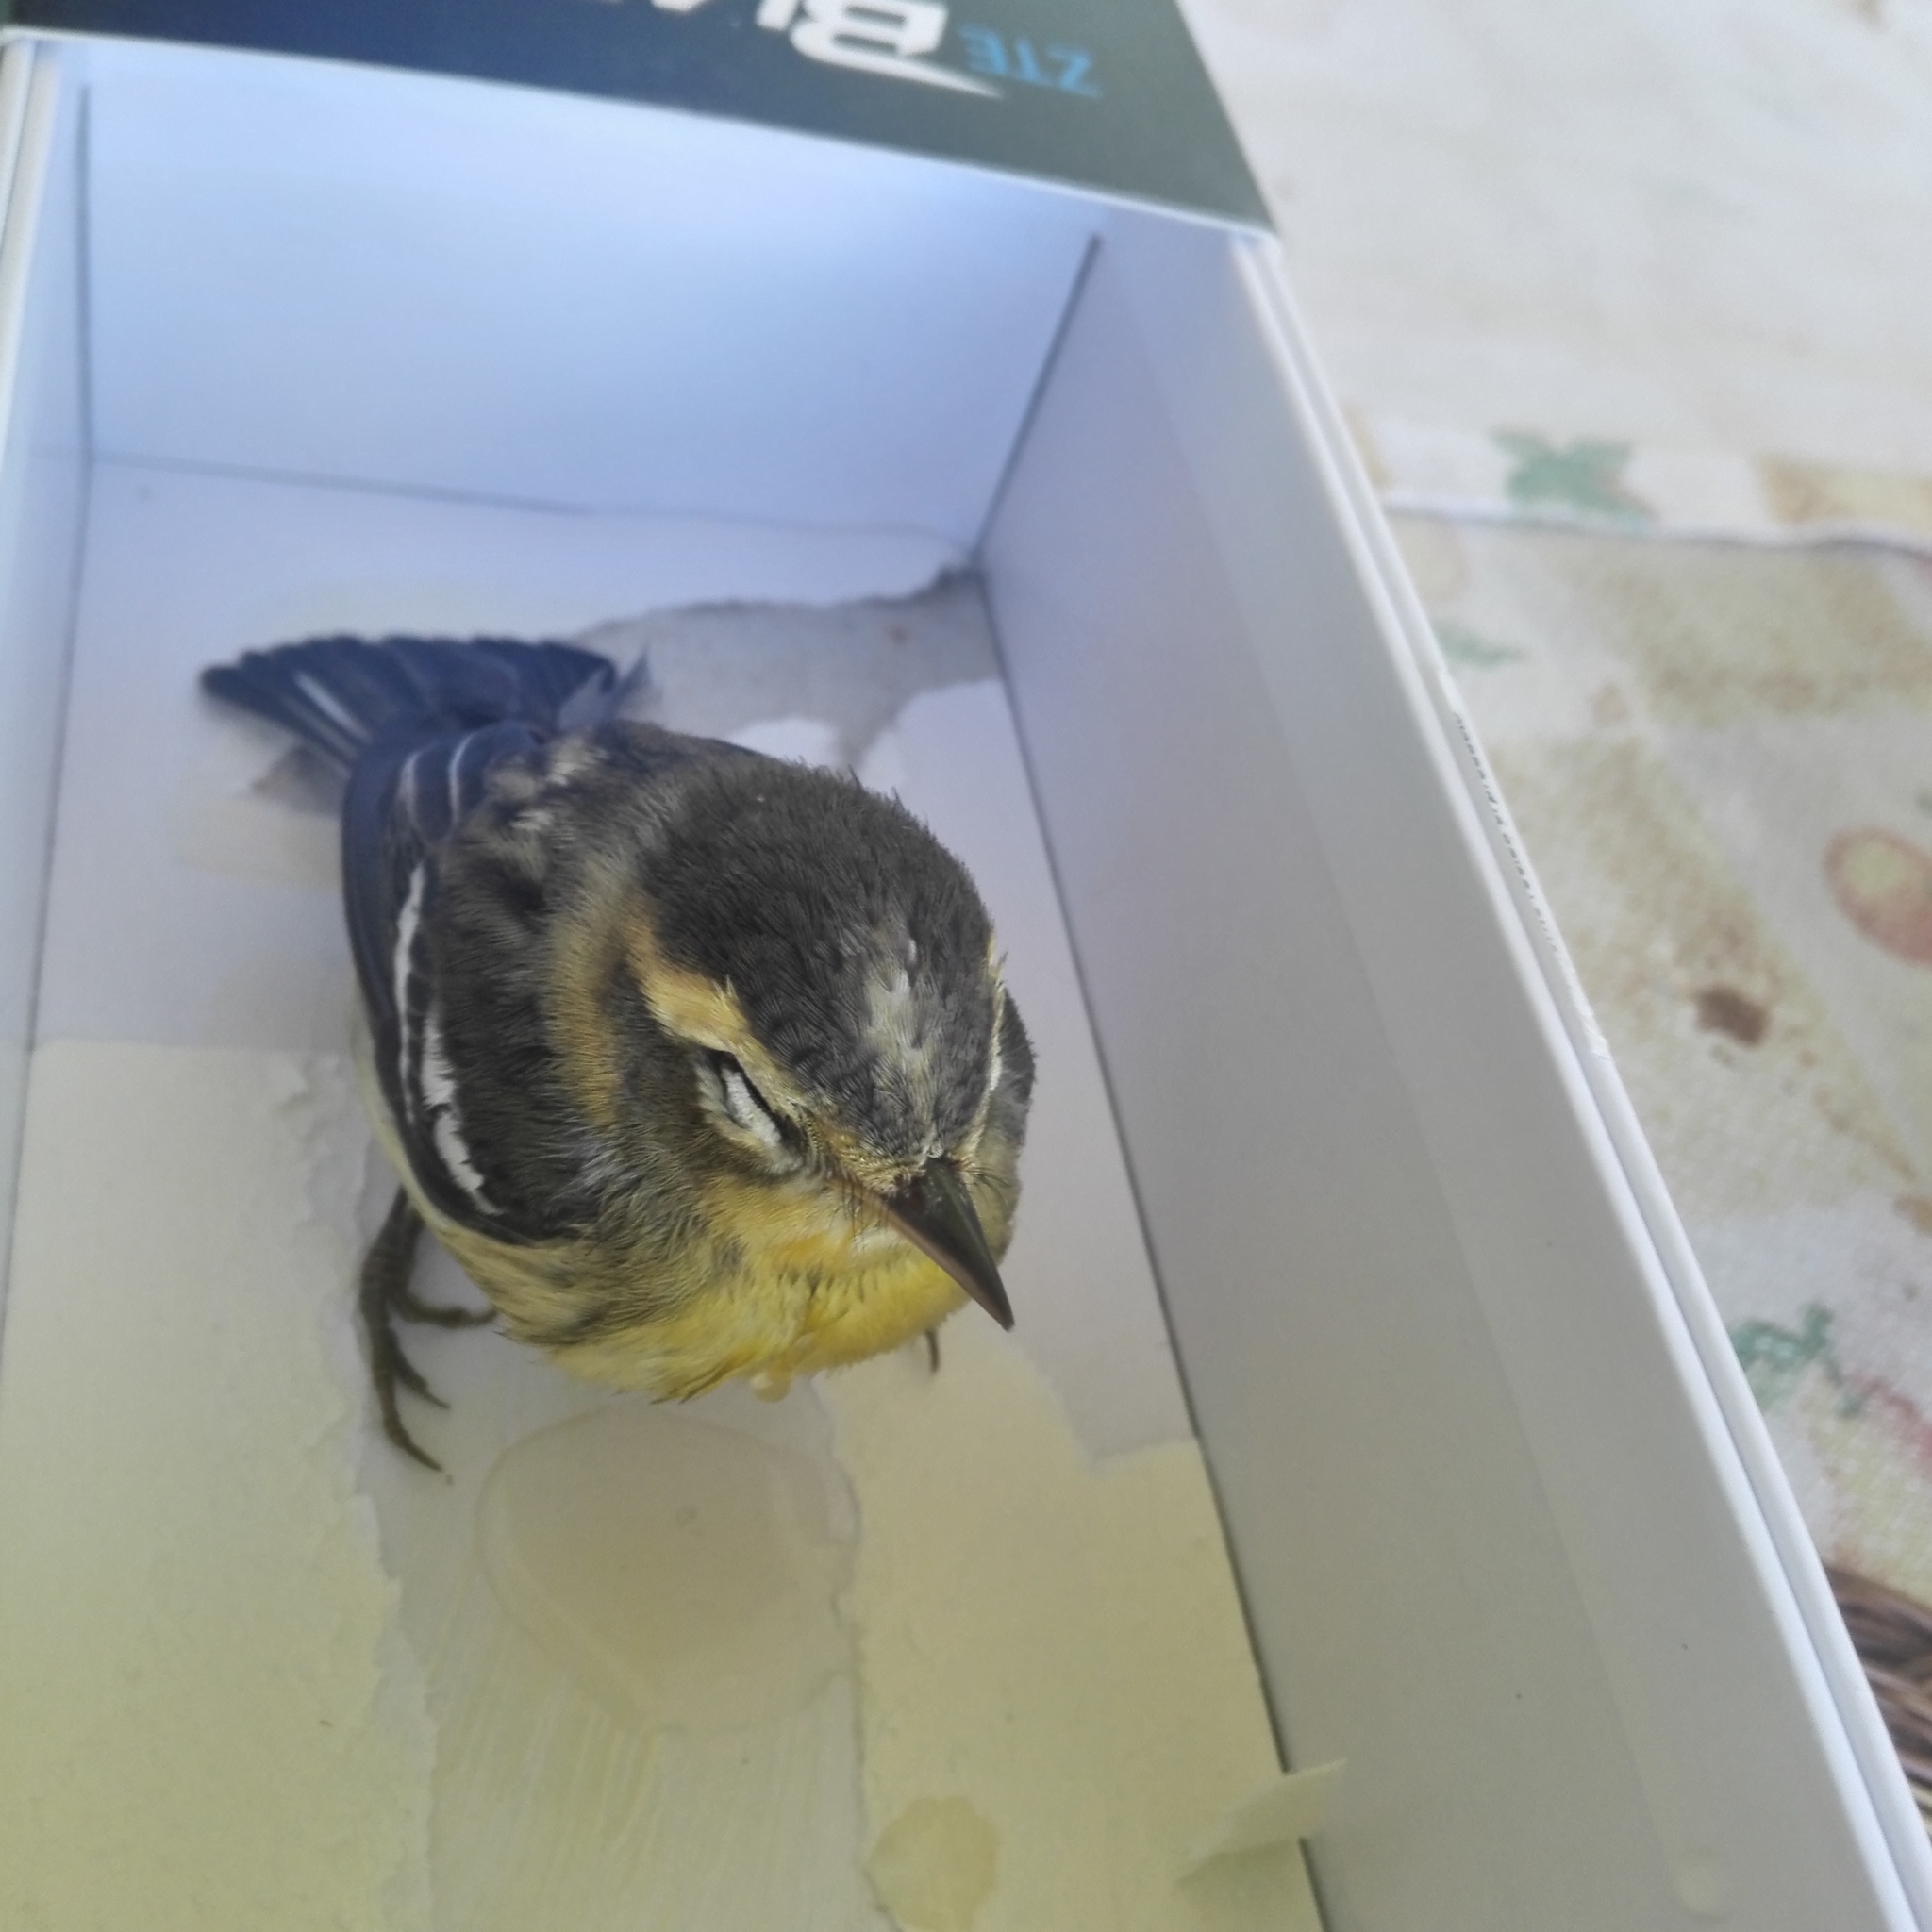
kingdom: Animalia
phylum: Chordata
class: Aves
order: Passeriformes
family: Parulidae
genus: Setophaga
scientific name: Setophaga fusca
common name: Blackburnian warbler
